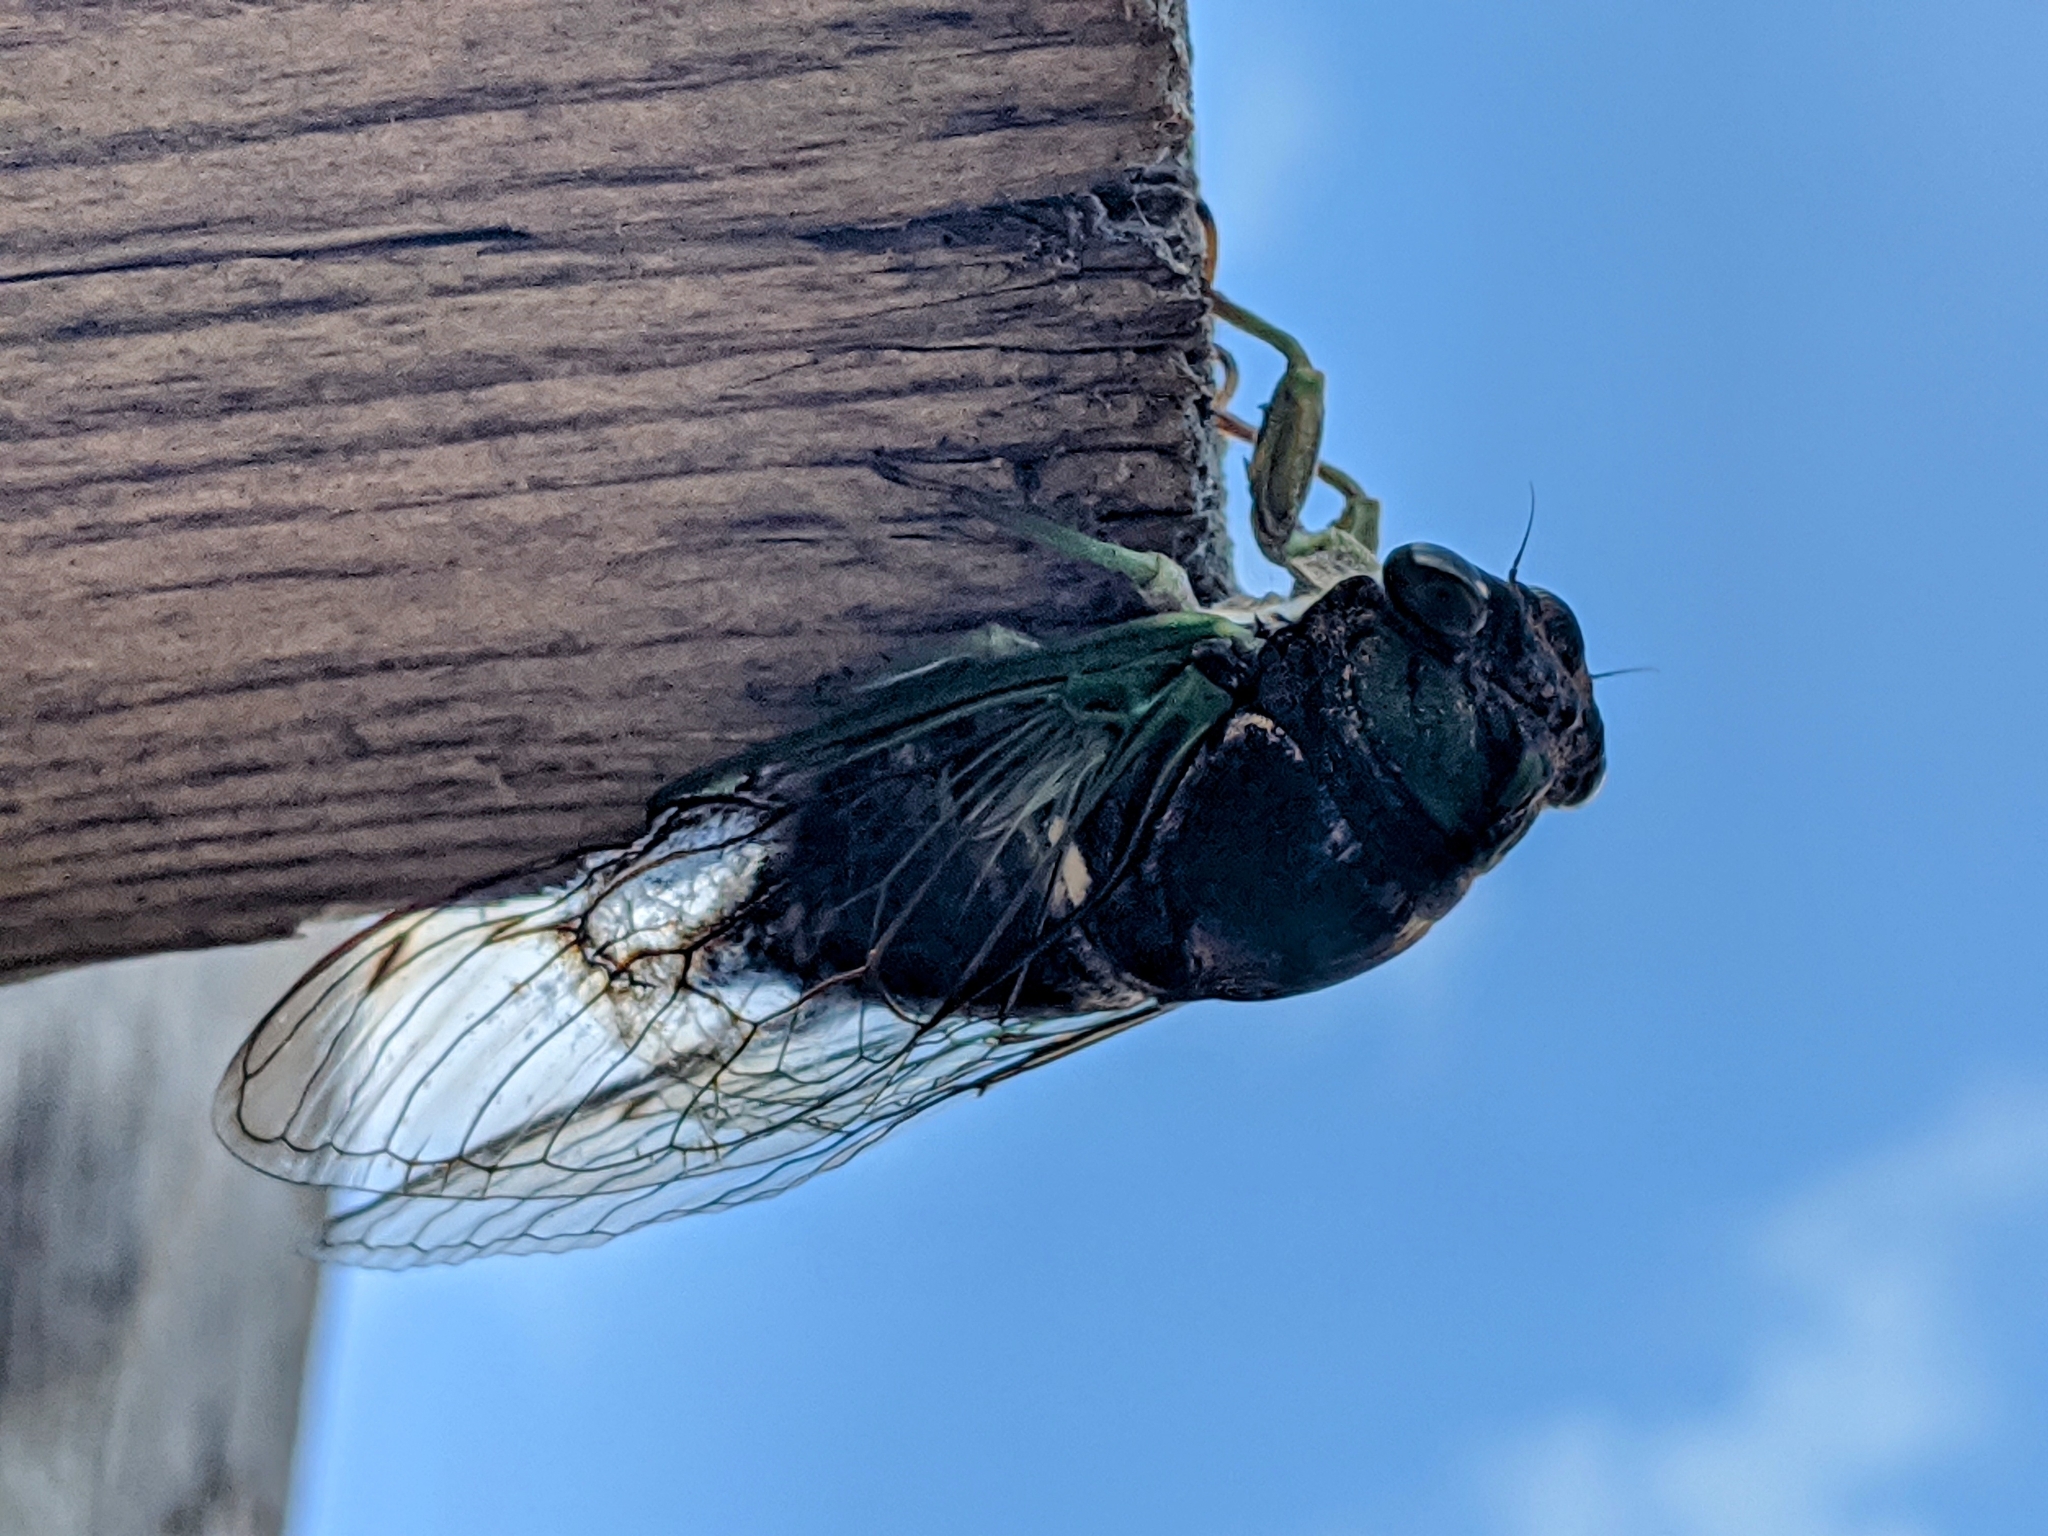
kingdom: Animalia
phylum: Arthropoda
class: Insecta
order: Hemiptera
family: Cicadidae
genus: Neotibicen
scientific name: Neotibicen tibicen
